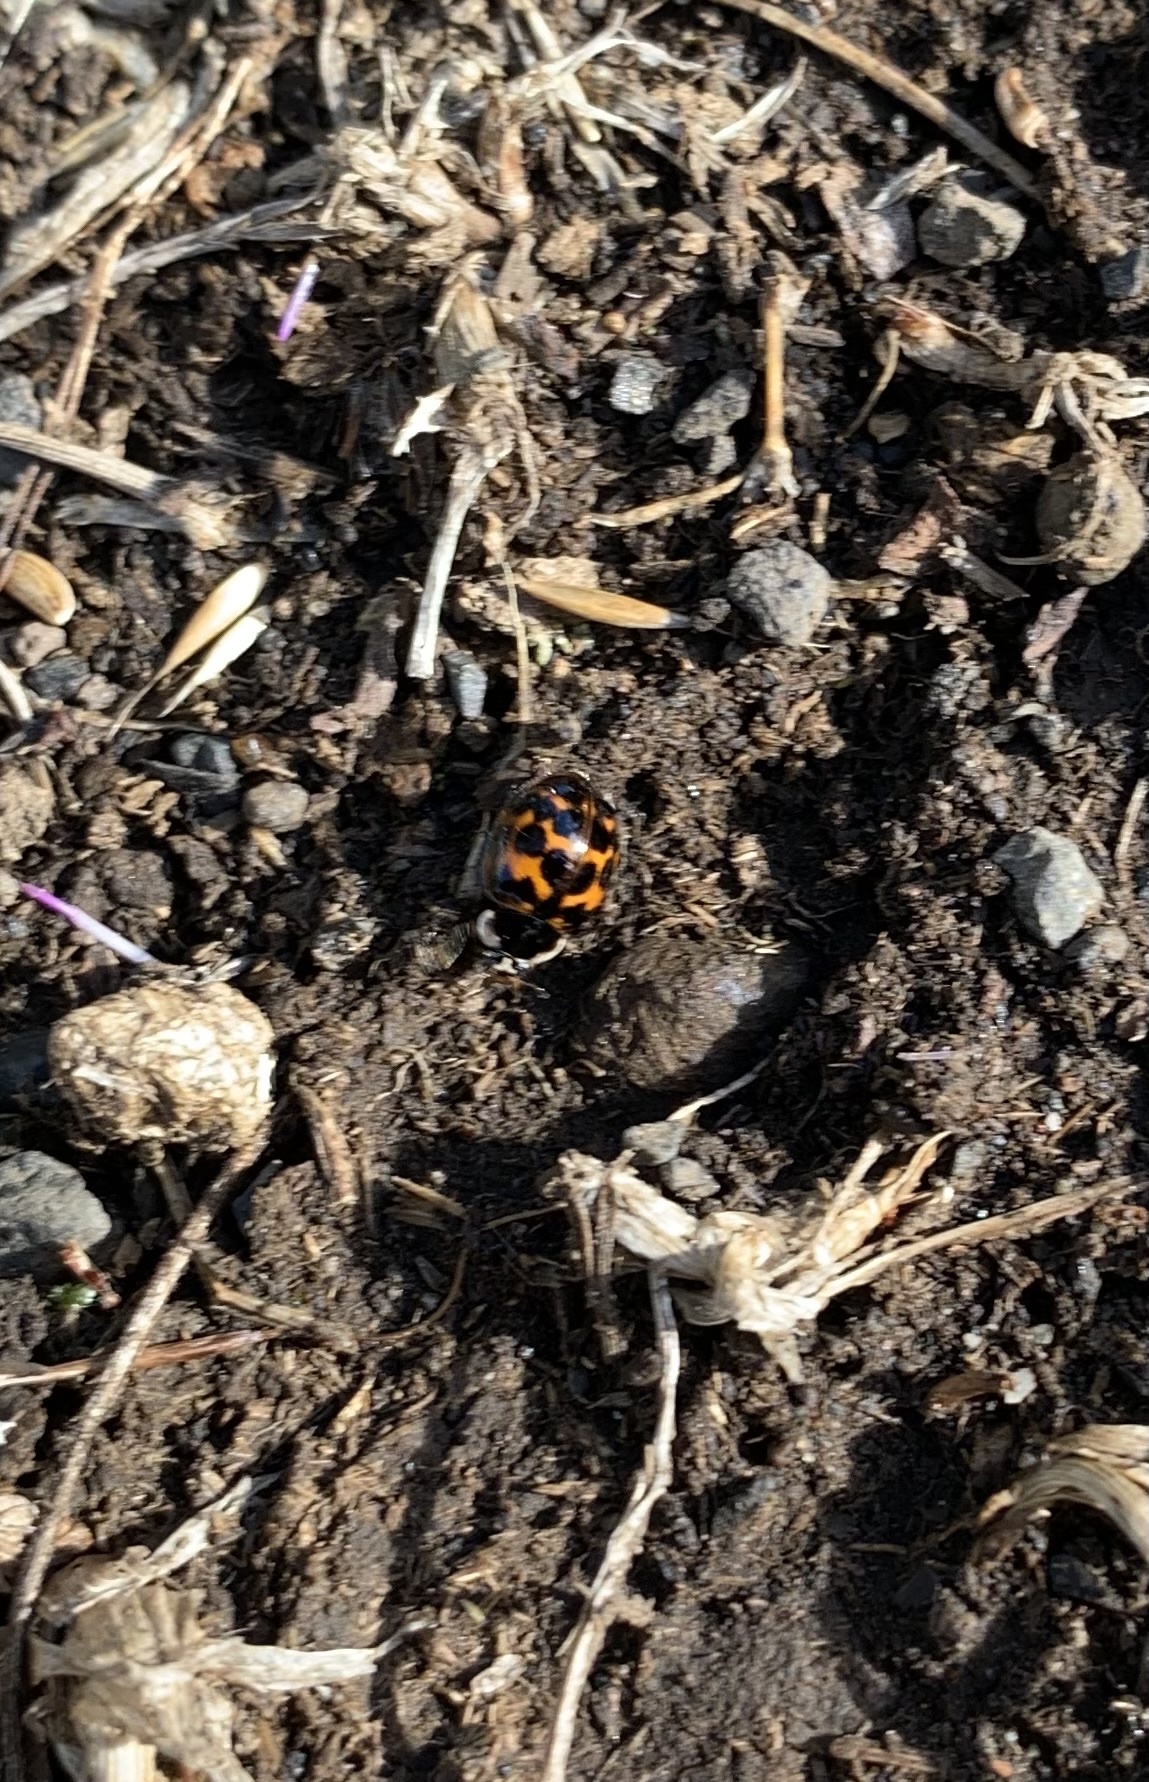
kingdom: Animalia
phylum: Arthropoda
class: Insecta
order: Coleoptera
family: Coccinellidae
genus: Harmonia
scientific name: Harmonia axyridis
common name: Harlequin ladybird
